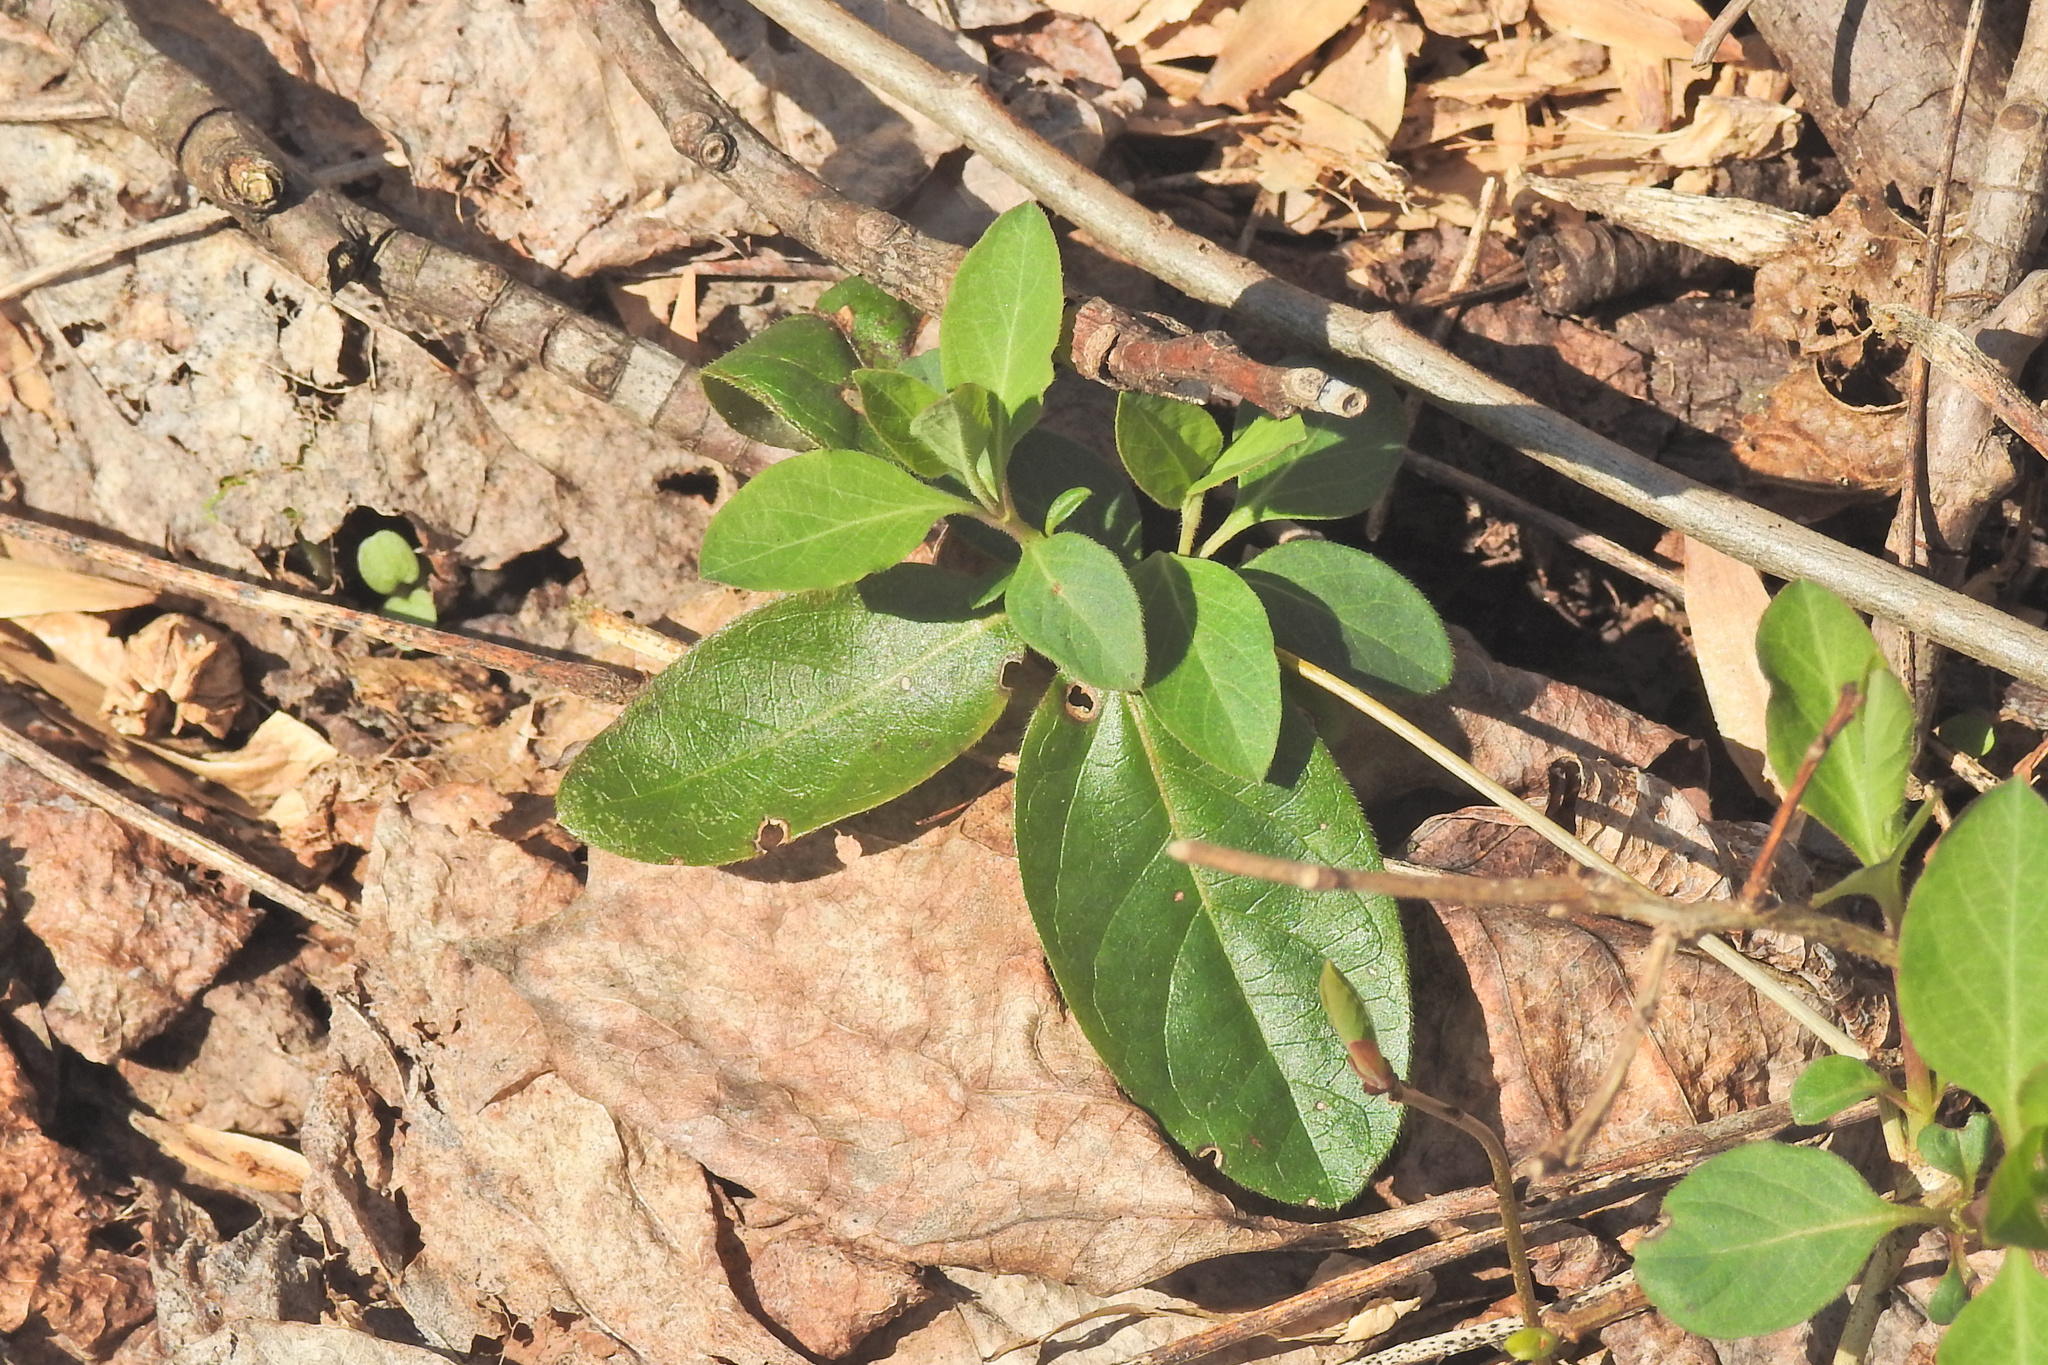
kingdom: Plantae
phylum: Tracheophyta
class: Magnoliopsida
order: Dipsacales
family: Caprifoliaceae
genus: Lonicera
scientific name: Lonicera japonica
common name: Japanese honeysuckle
